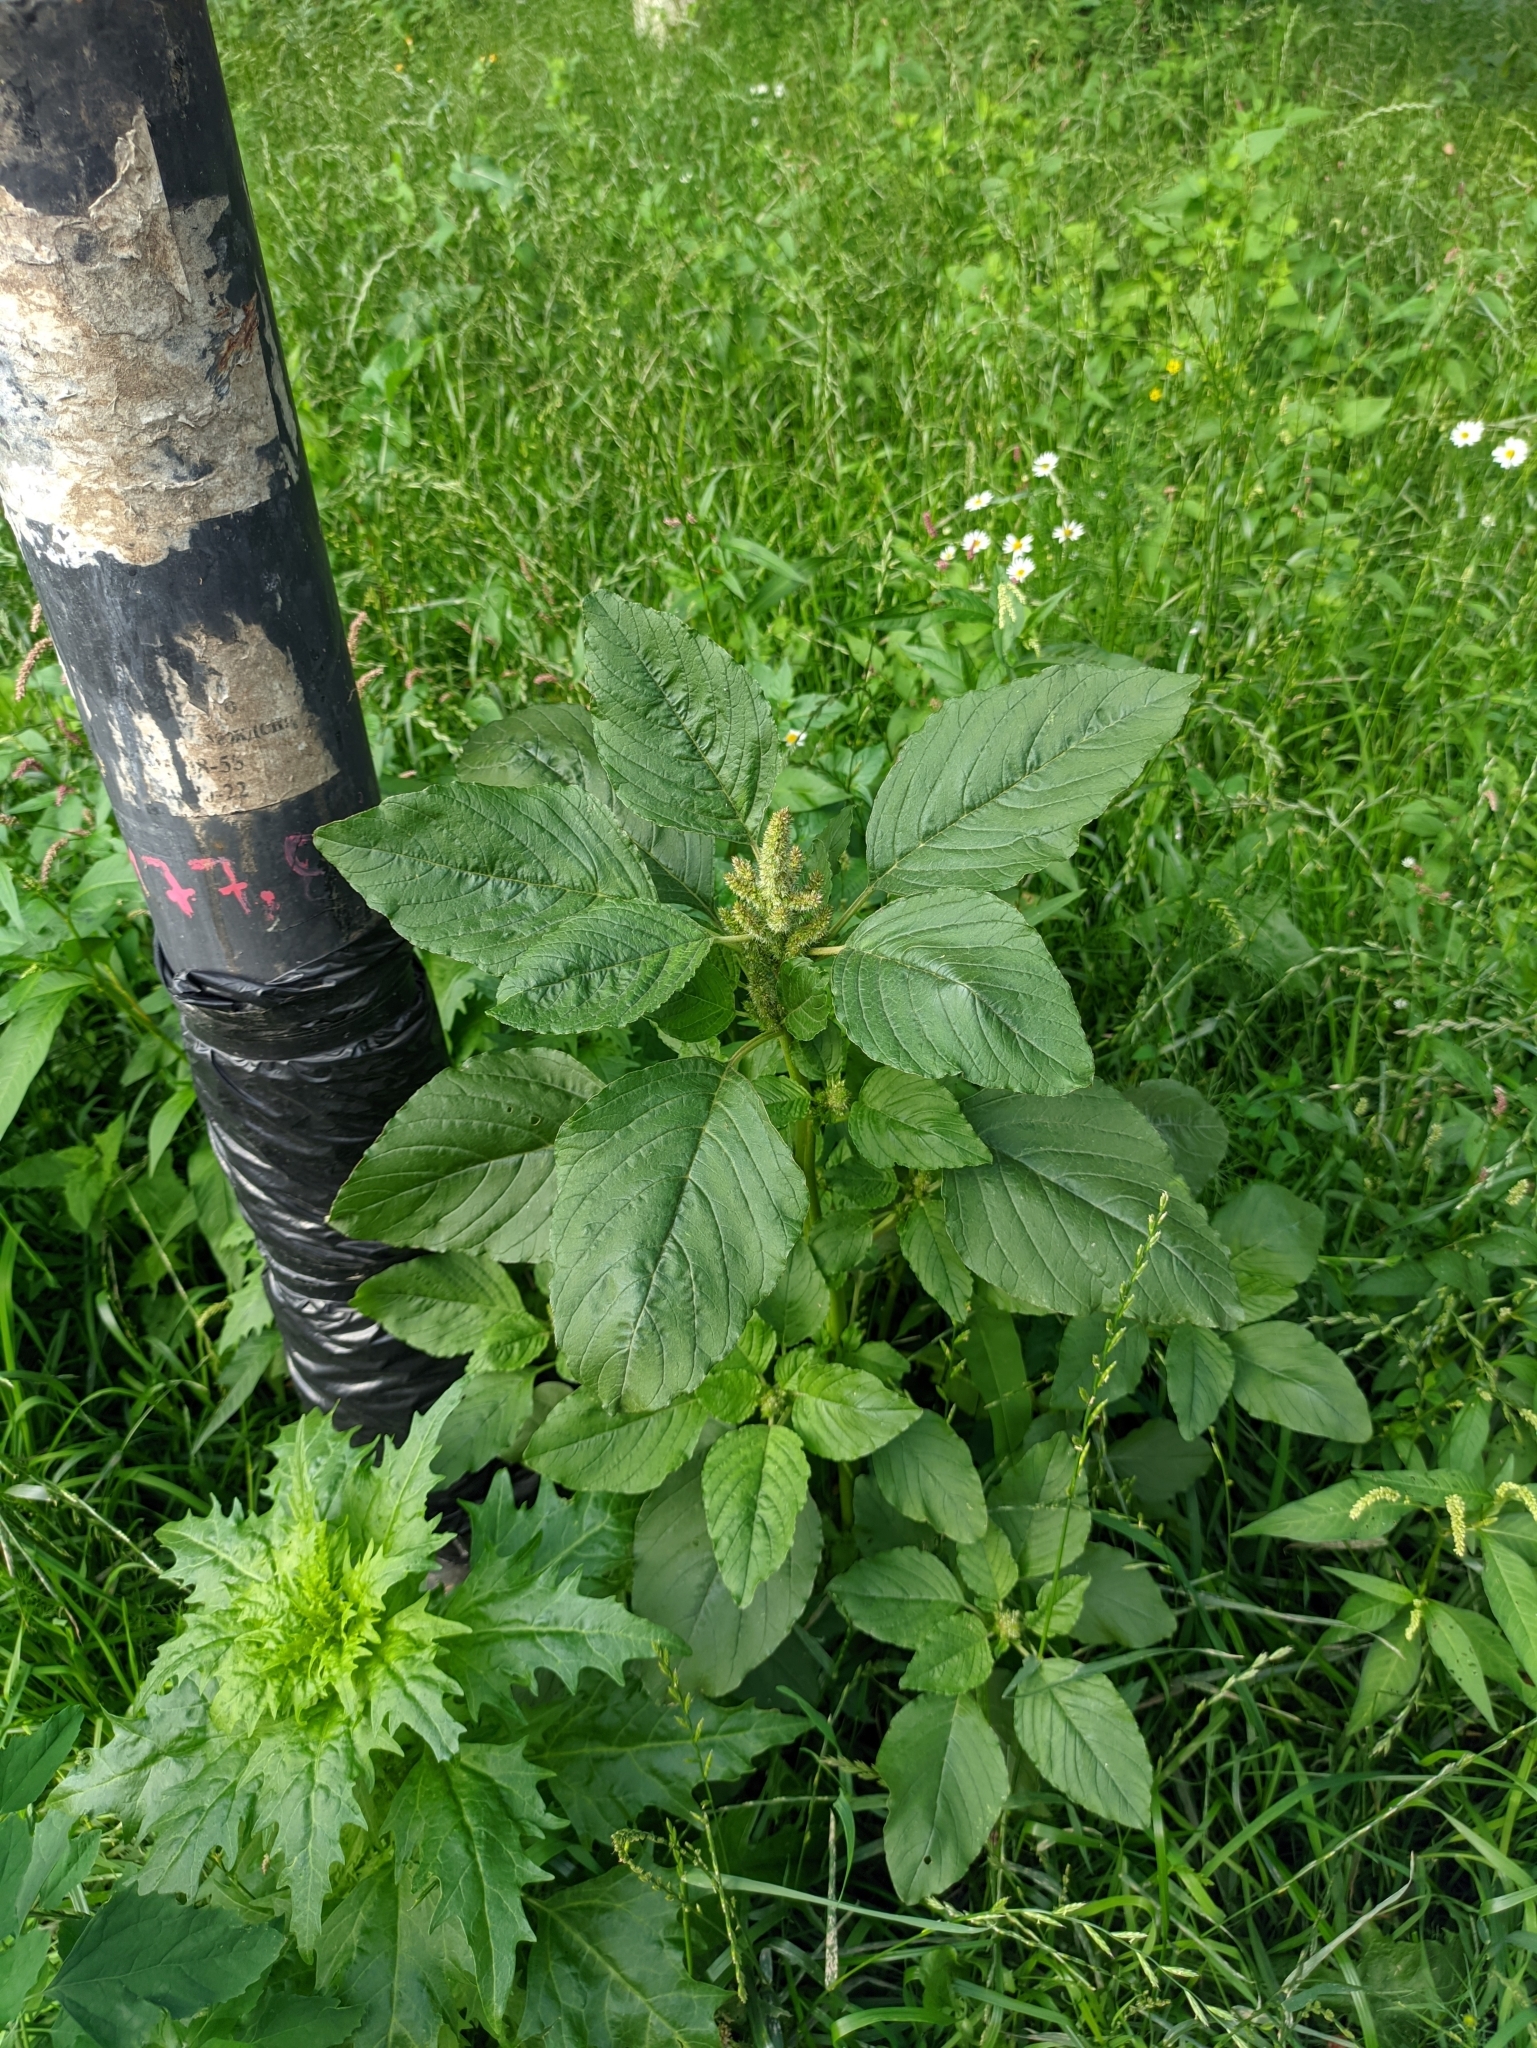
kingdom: Plantae
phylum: Tracheophyta
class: Magnoliopsida
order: Caryophyllales
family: Amaranthaceae
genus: Amaranthus
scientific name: Amaranthus retroflexus
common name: Redroot amaranth
